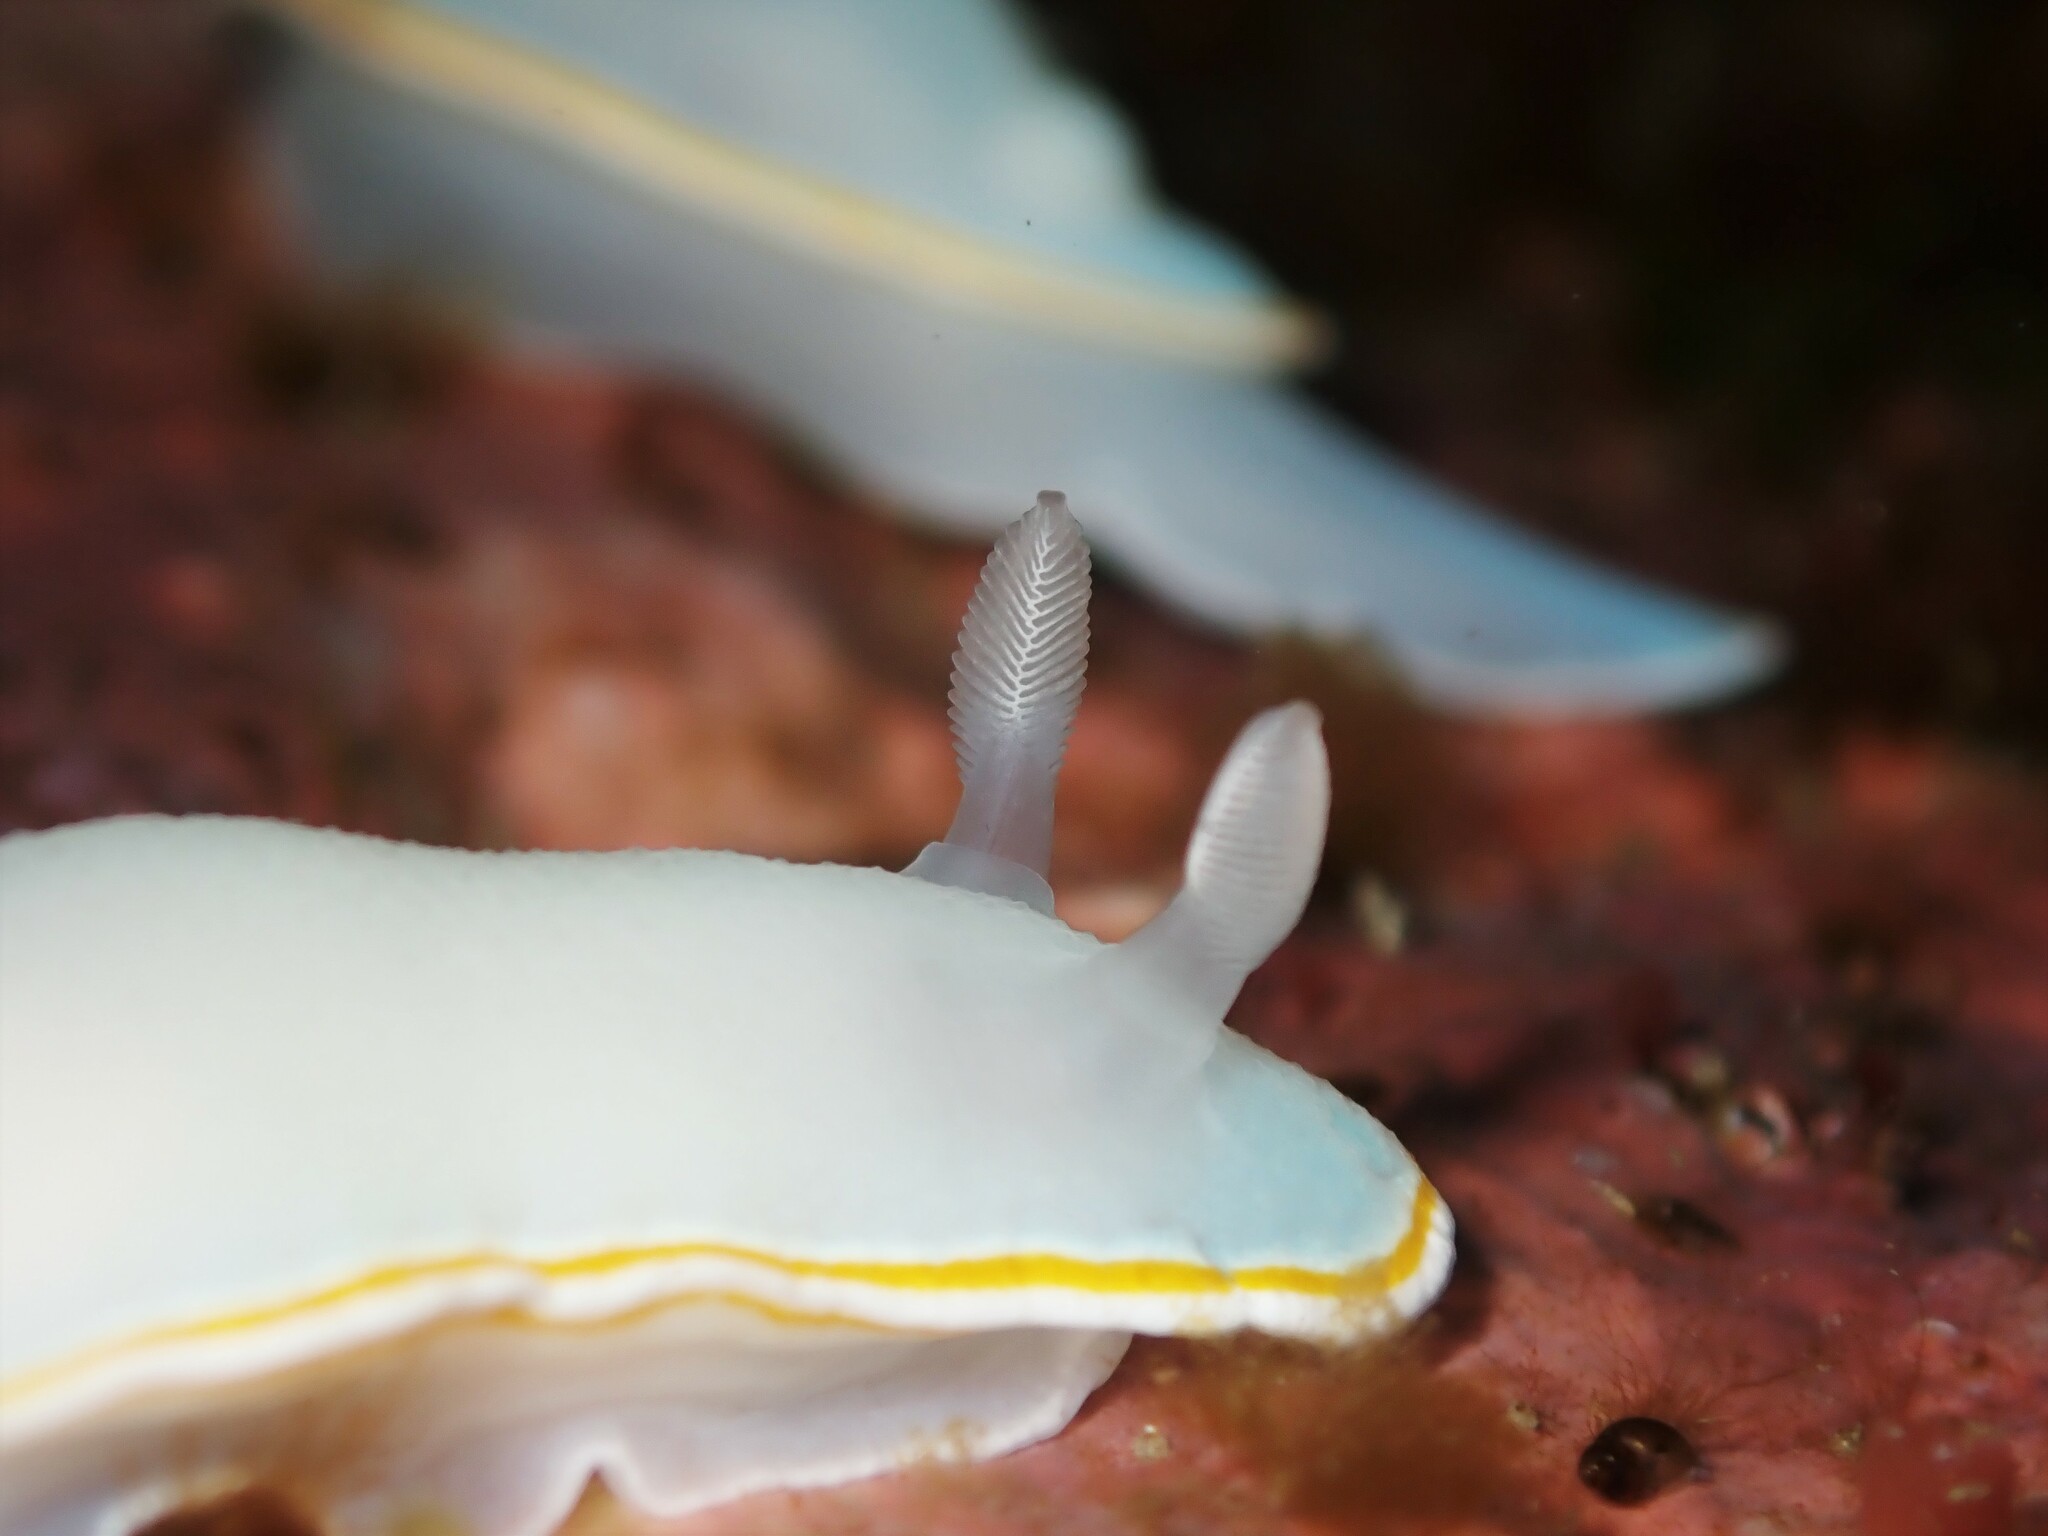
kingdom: Animalia
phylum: Mollusca
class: Gastropoda
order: Nudibranchia
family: Chromodorididae
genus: Goniobranchus
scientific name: Goniobranchus aureomarginatus
